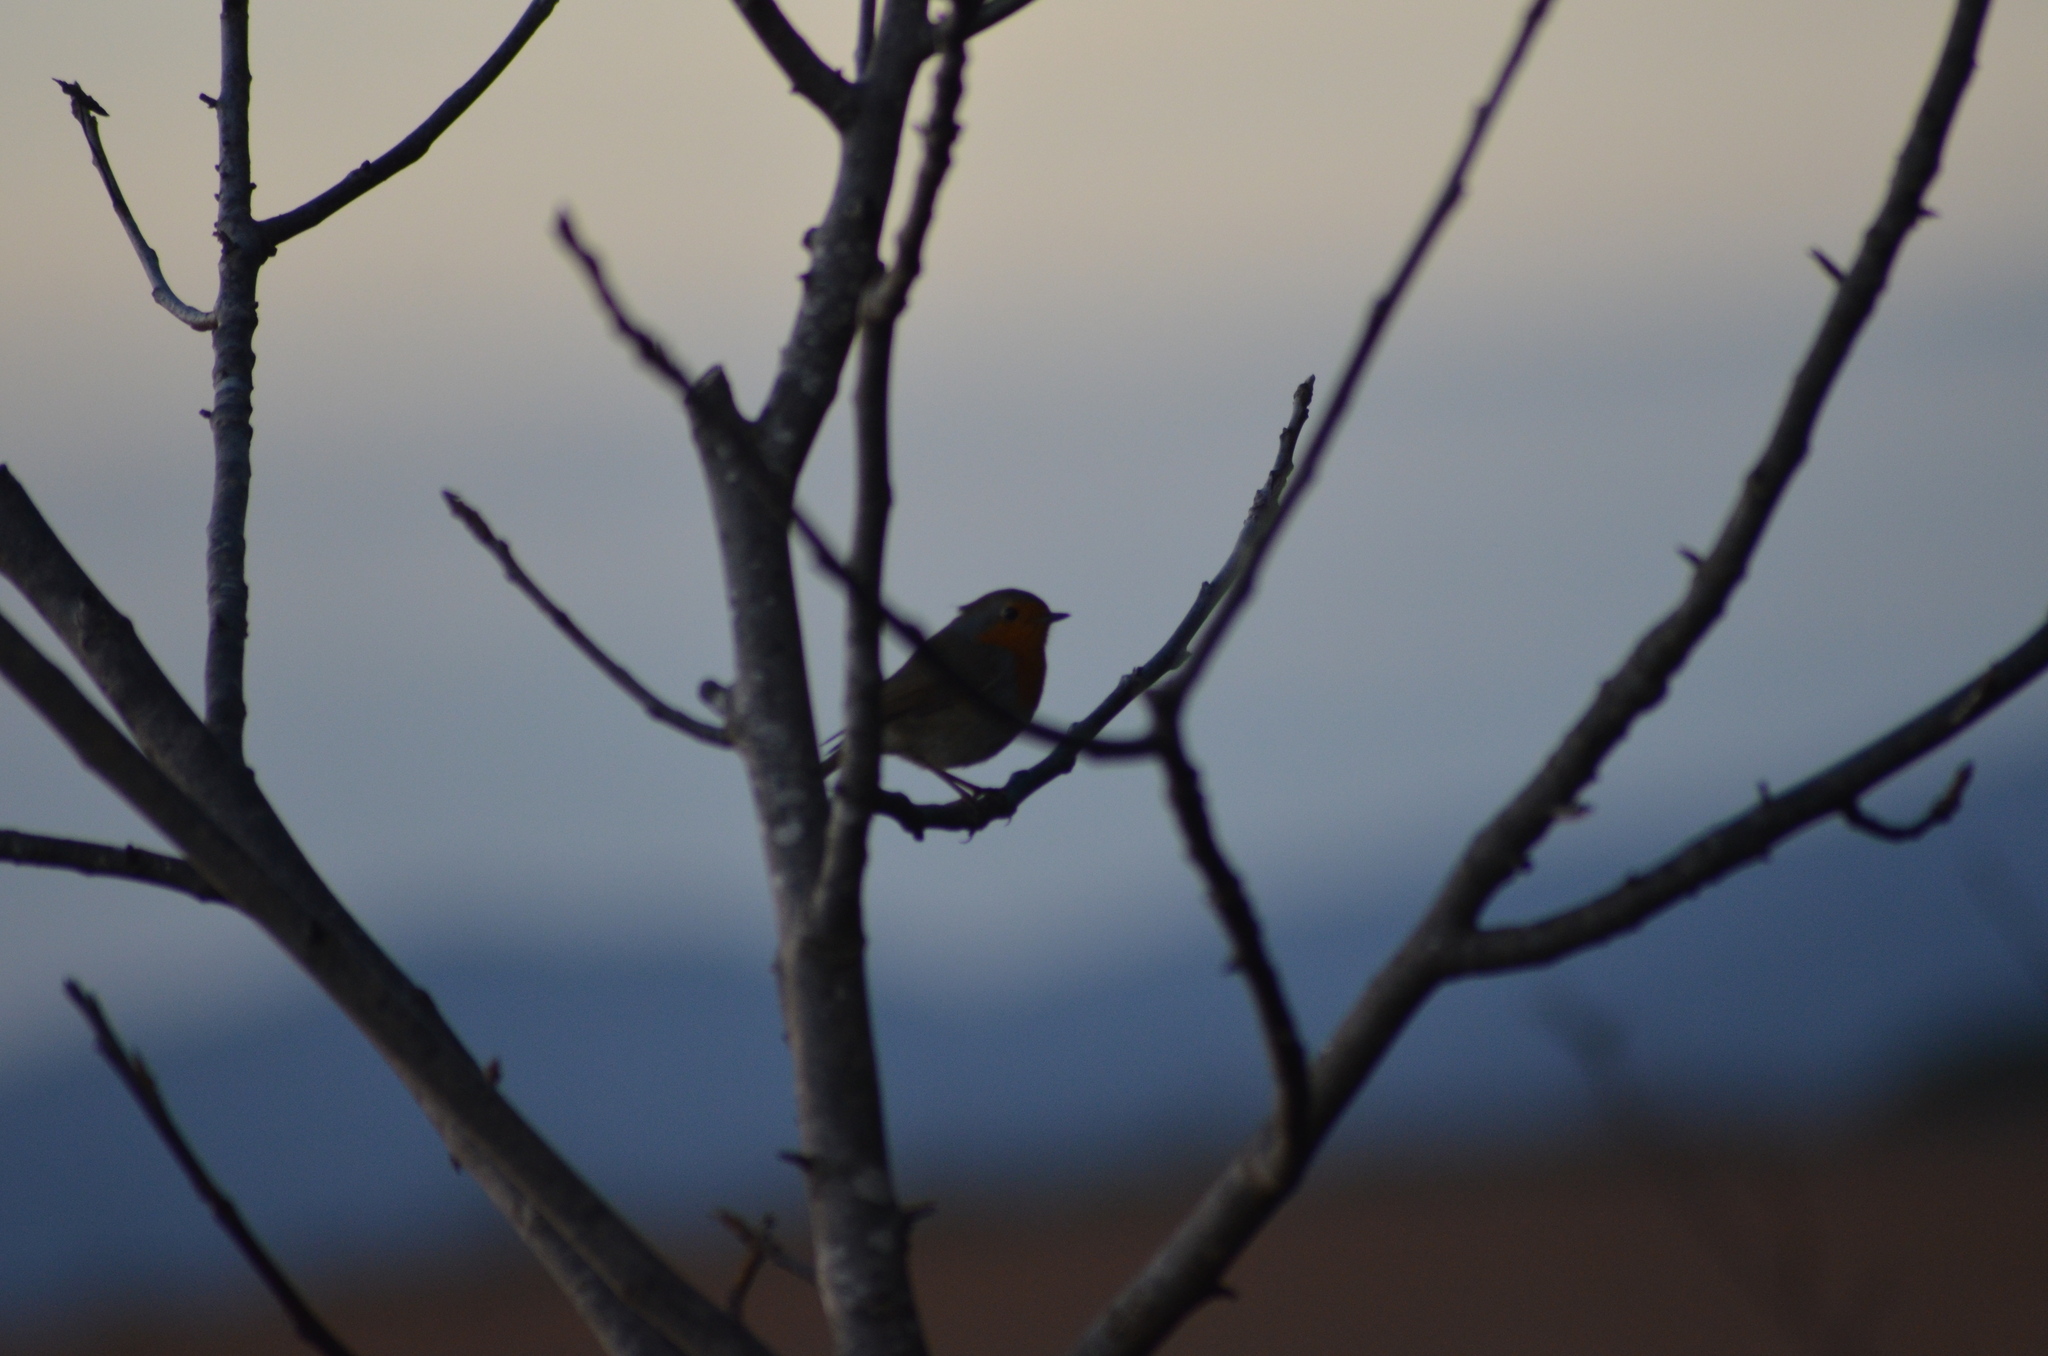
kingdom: Animalia
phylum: Chordata
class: Aves
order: Passeriformes
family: Muscicapidae
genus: Erithacus
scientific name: Erithacus rubecula
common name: European robin
